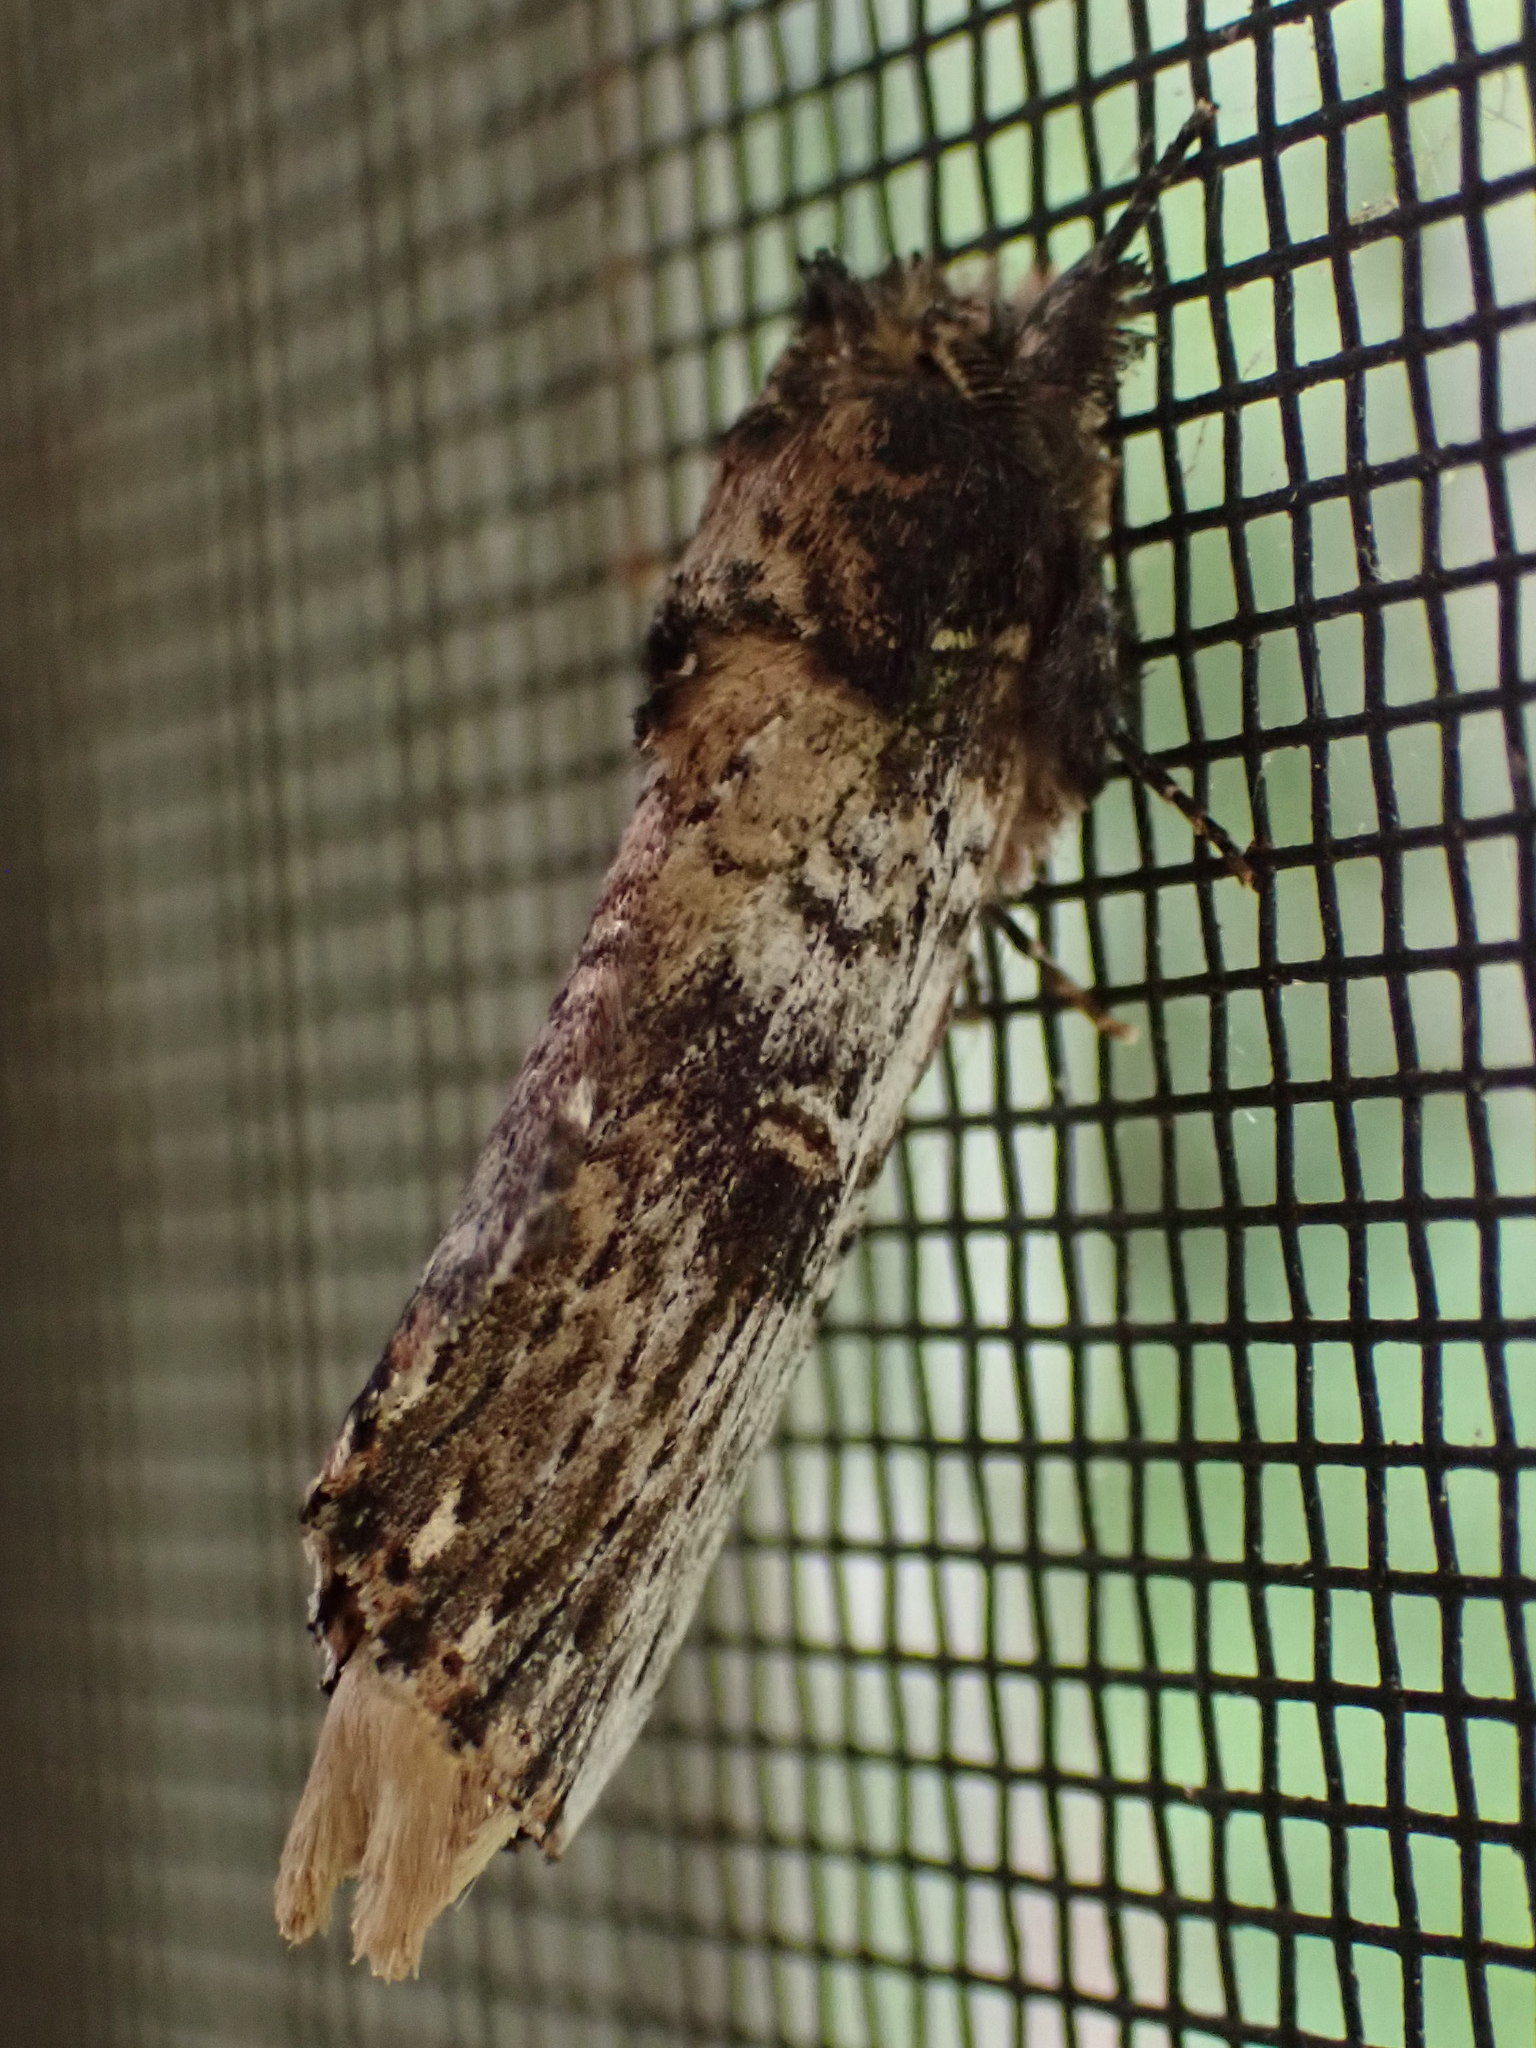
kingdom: Animalia
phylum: Arthropoda
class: Insecta
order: Lepidoptera
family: Notodontidae
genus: Schizura
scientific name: Schizura ipomaeae
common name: Morning-glory prominent
